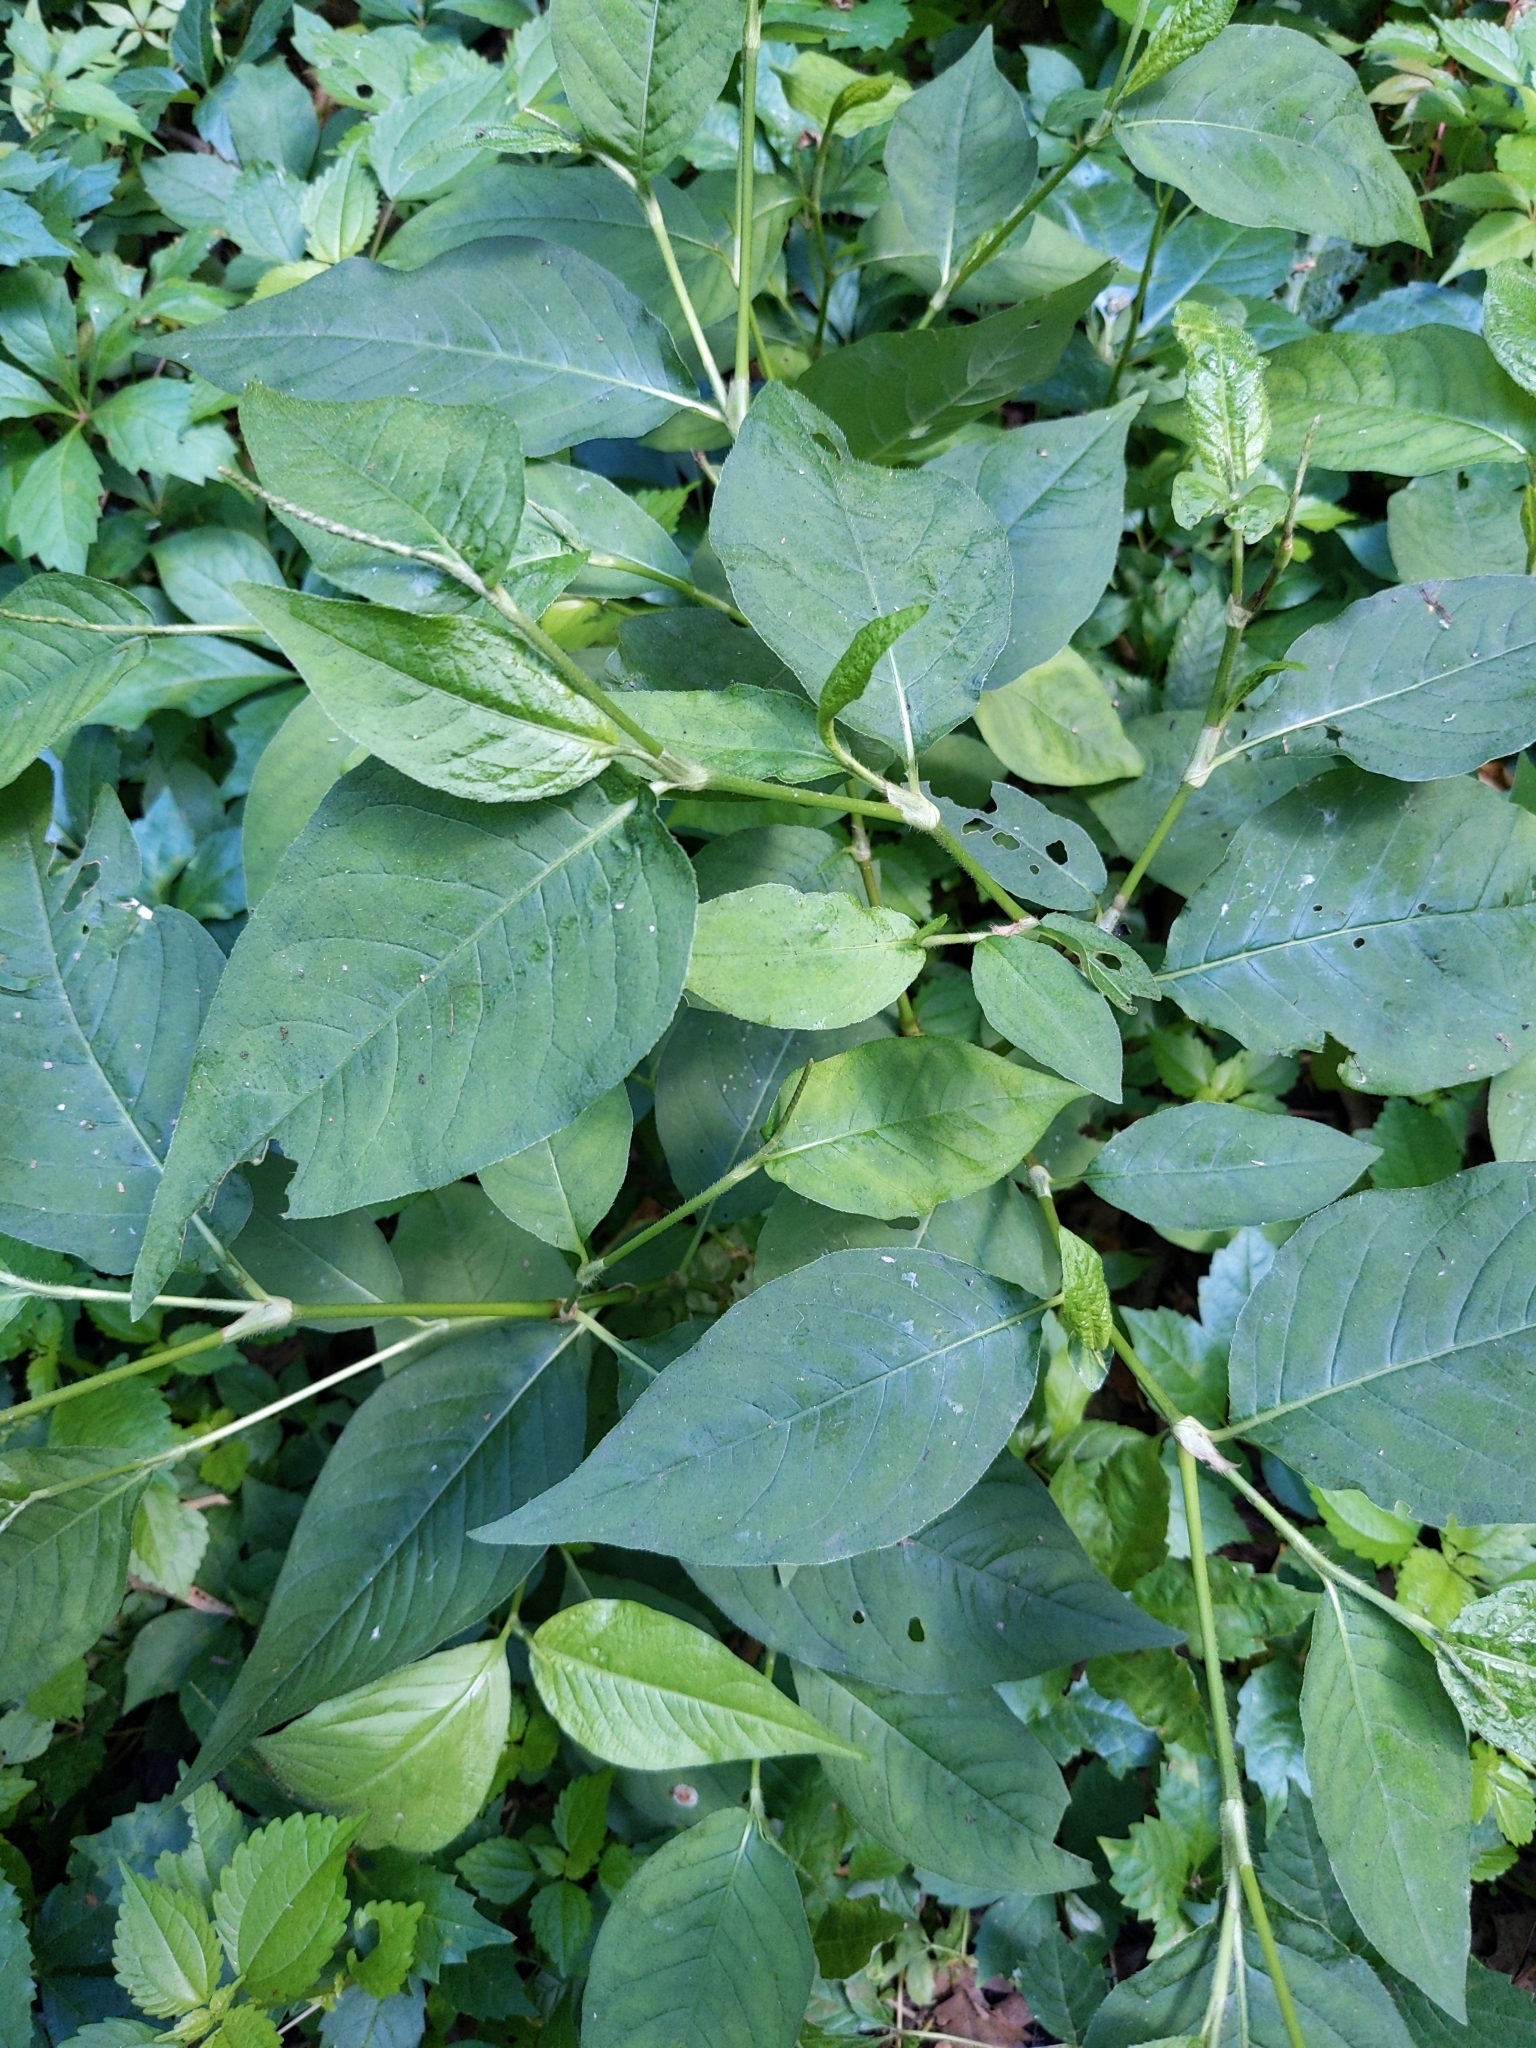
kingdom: Plantae
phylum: Tracheophyta
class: Magnoliopsida
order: Caryophyllales
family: Polygonaceae
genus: Persicaria
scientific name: Persicaria virginiana
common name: Jumpseed
